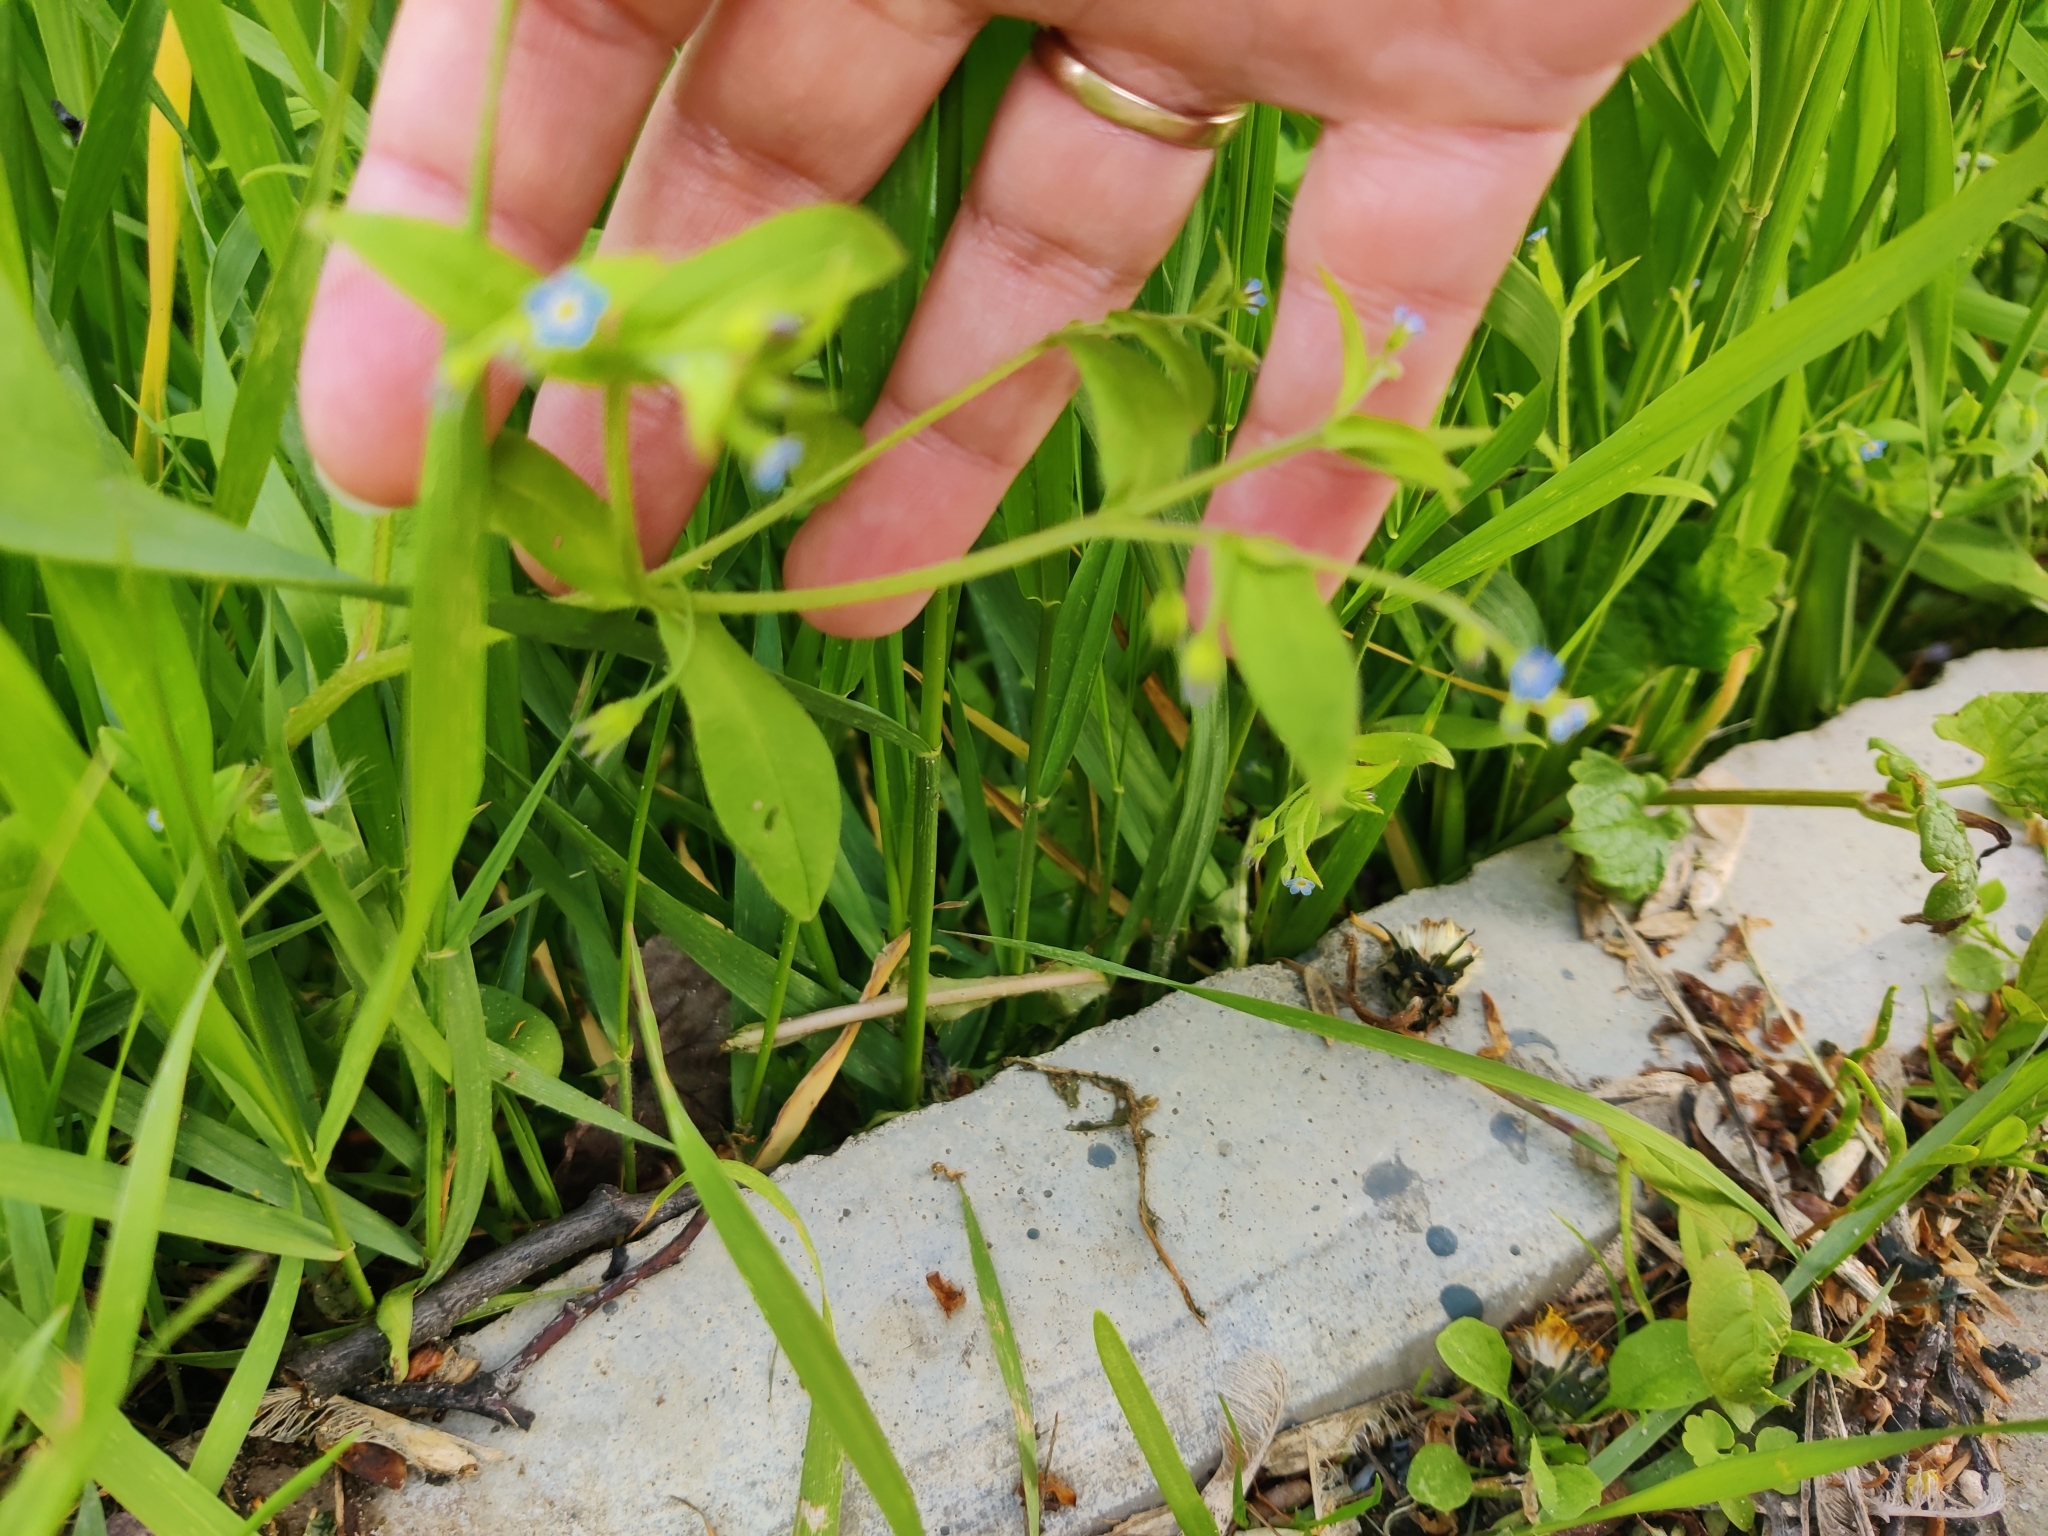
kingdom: Plantae
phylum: Tracheophyta
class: Magnoliopsida
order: Boraginales
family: Boraginaceae
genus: Myosotis
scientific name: Myosotis sparsiflora
